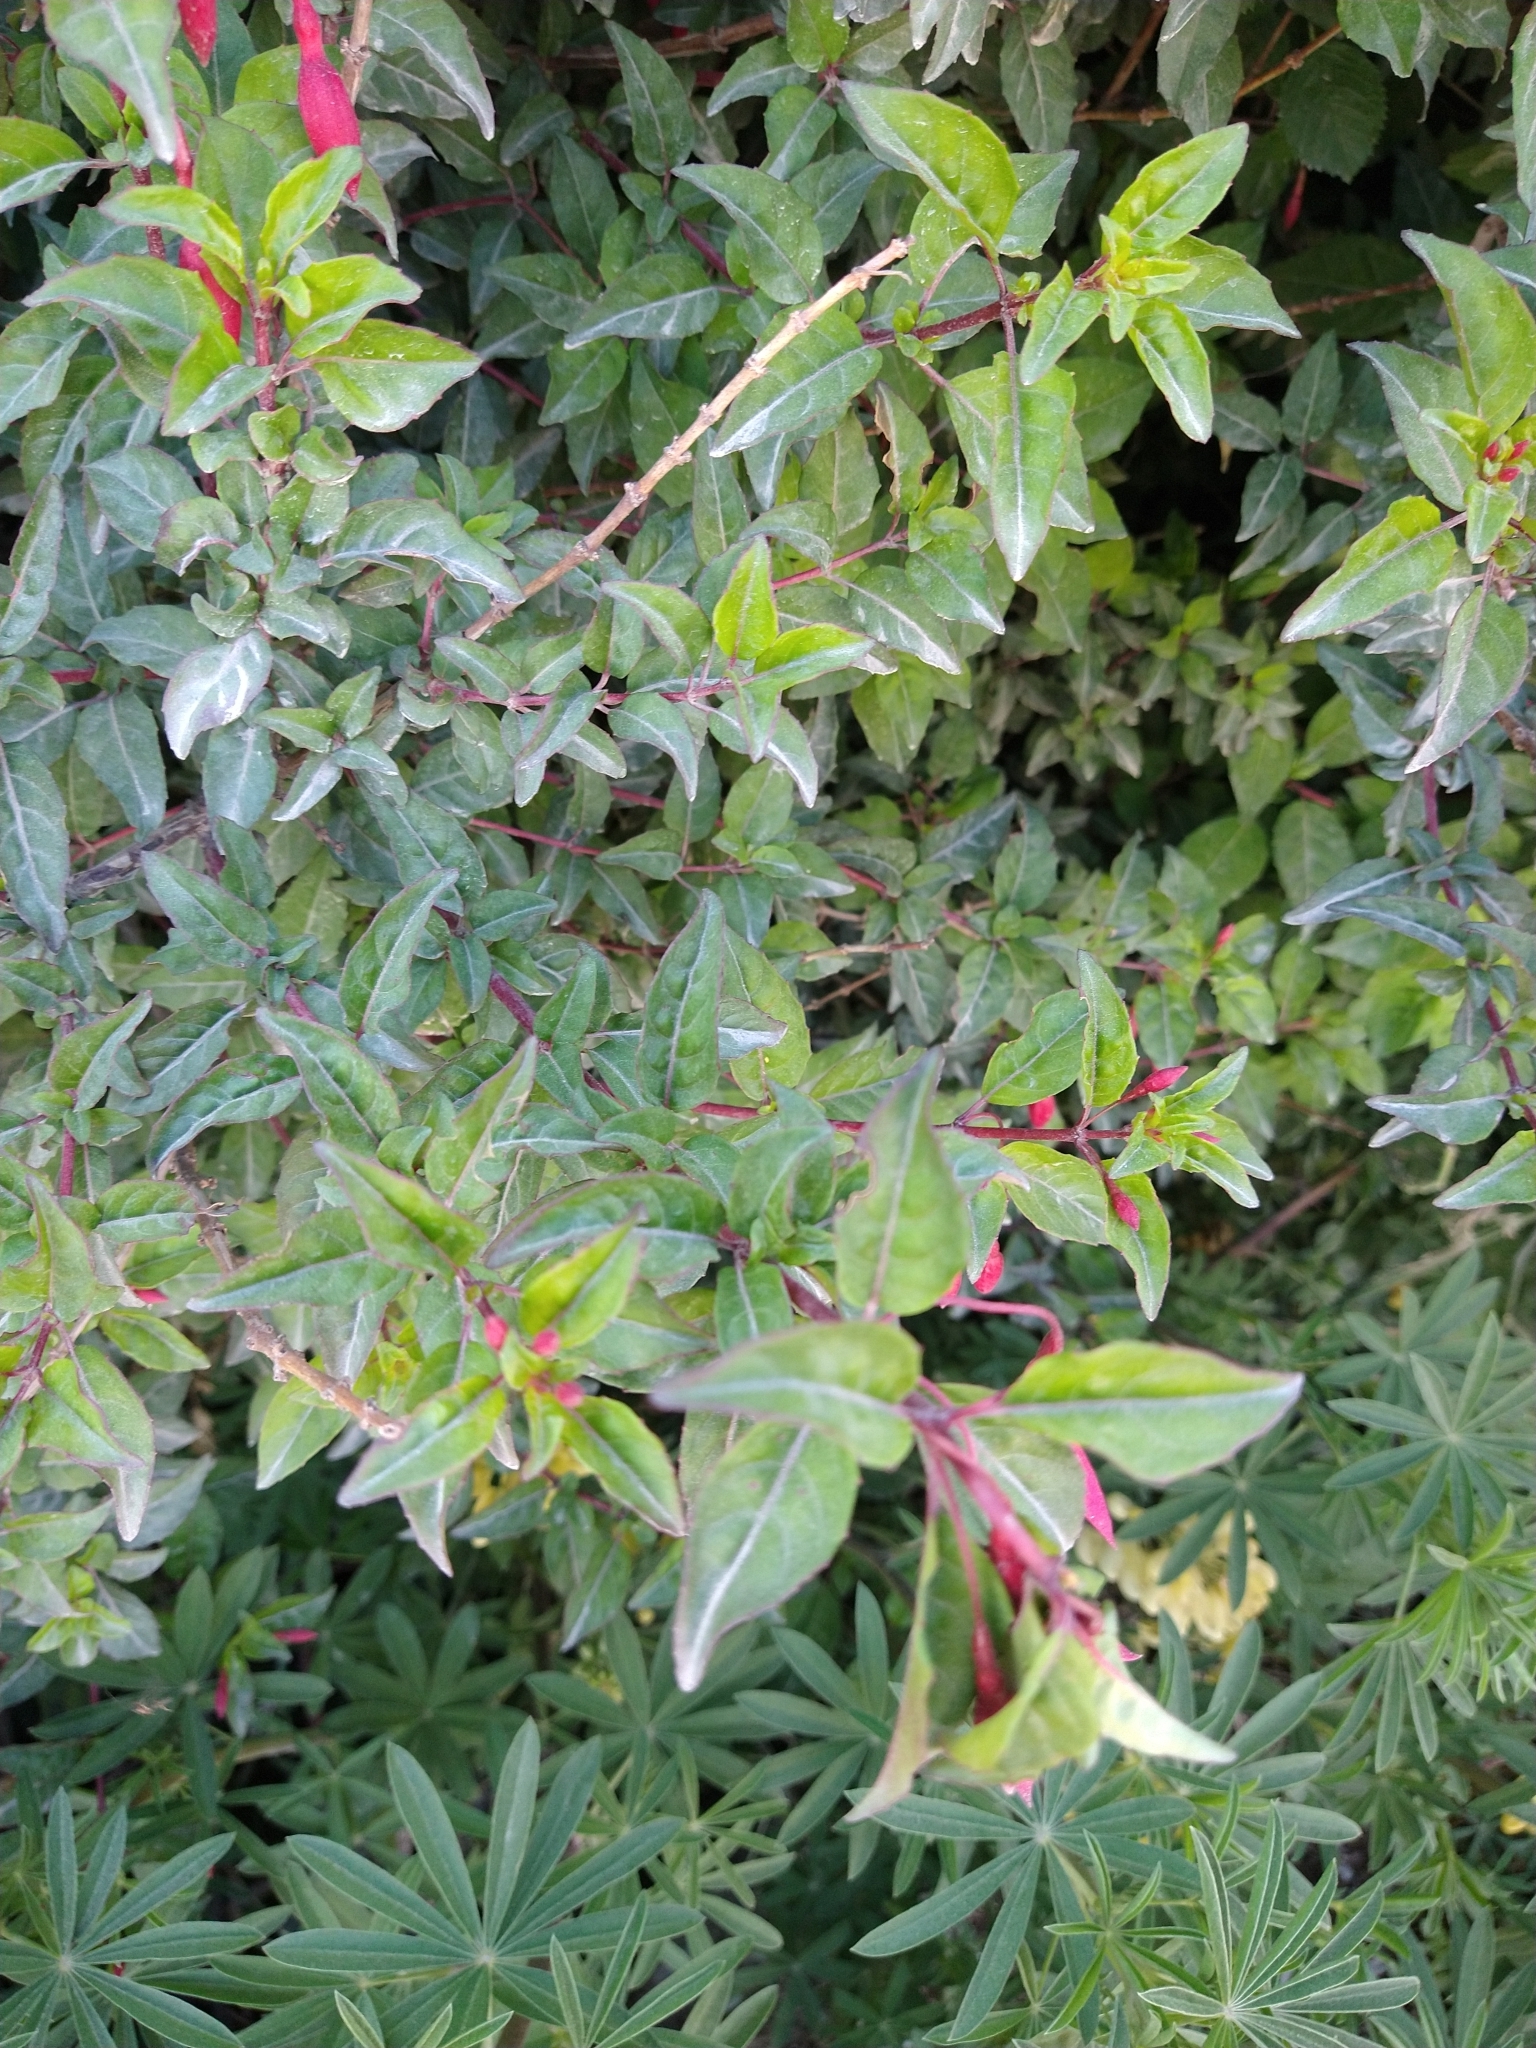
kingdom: Plantae
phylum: Tracheophyta
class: Magnoliopsida
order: Myrtales
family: Onagraceae
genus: Fuchsia
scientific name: Fuchsia magellanica
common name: Hardy fuchsia
